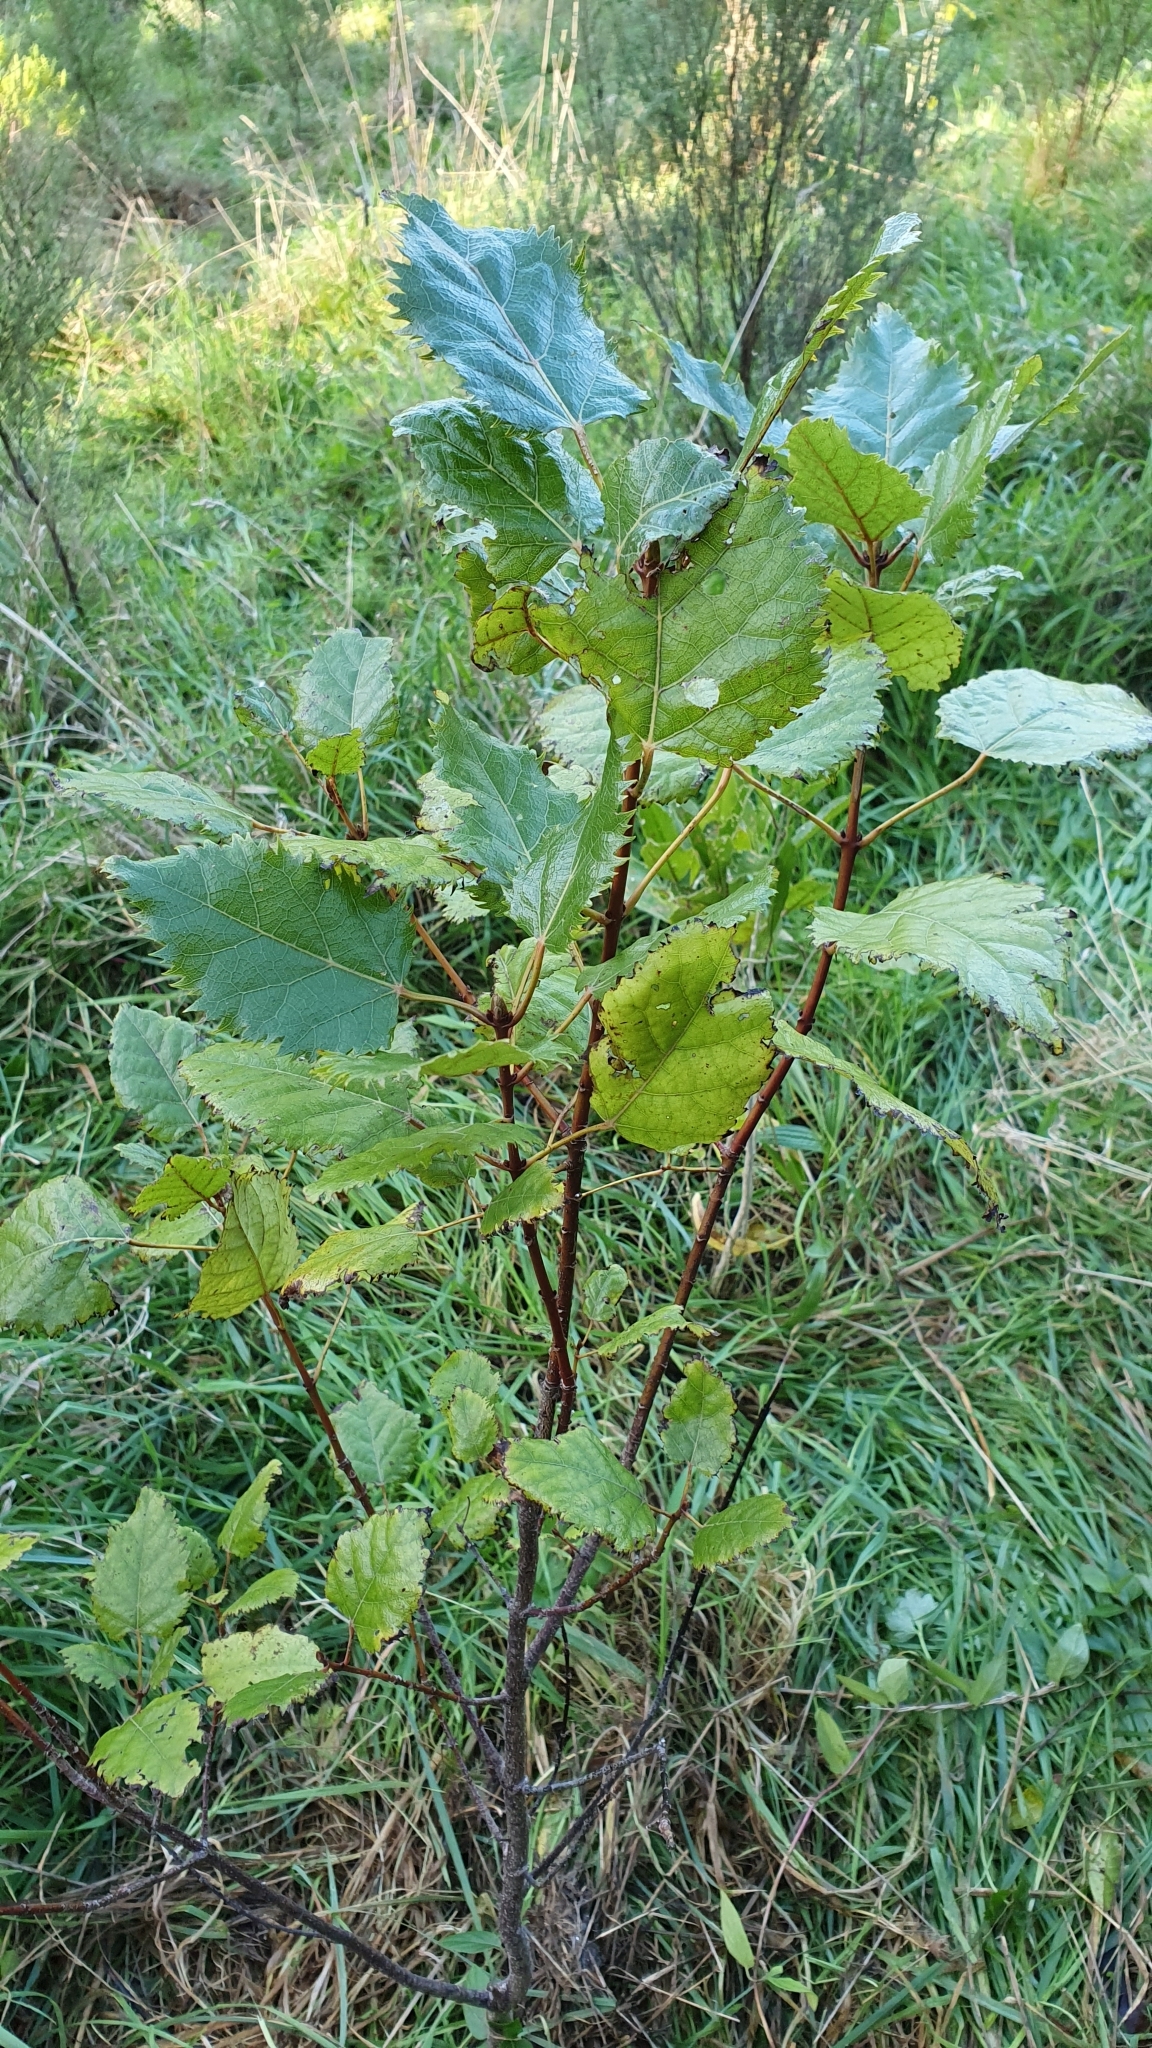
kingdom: Plantae
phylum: Tracheophyta
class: Magnoliopsida
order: Oxalidales
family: Elaeocarpaceae
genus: Aristotelia
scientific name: Aristotelia serrata
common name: New zealand wineberry
